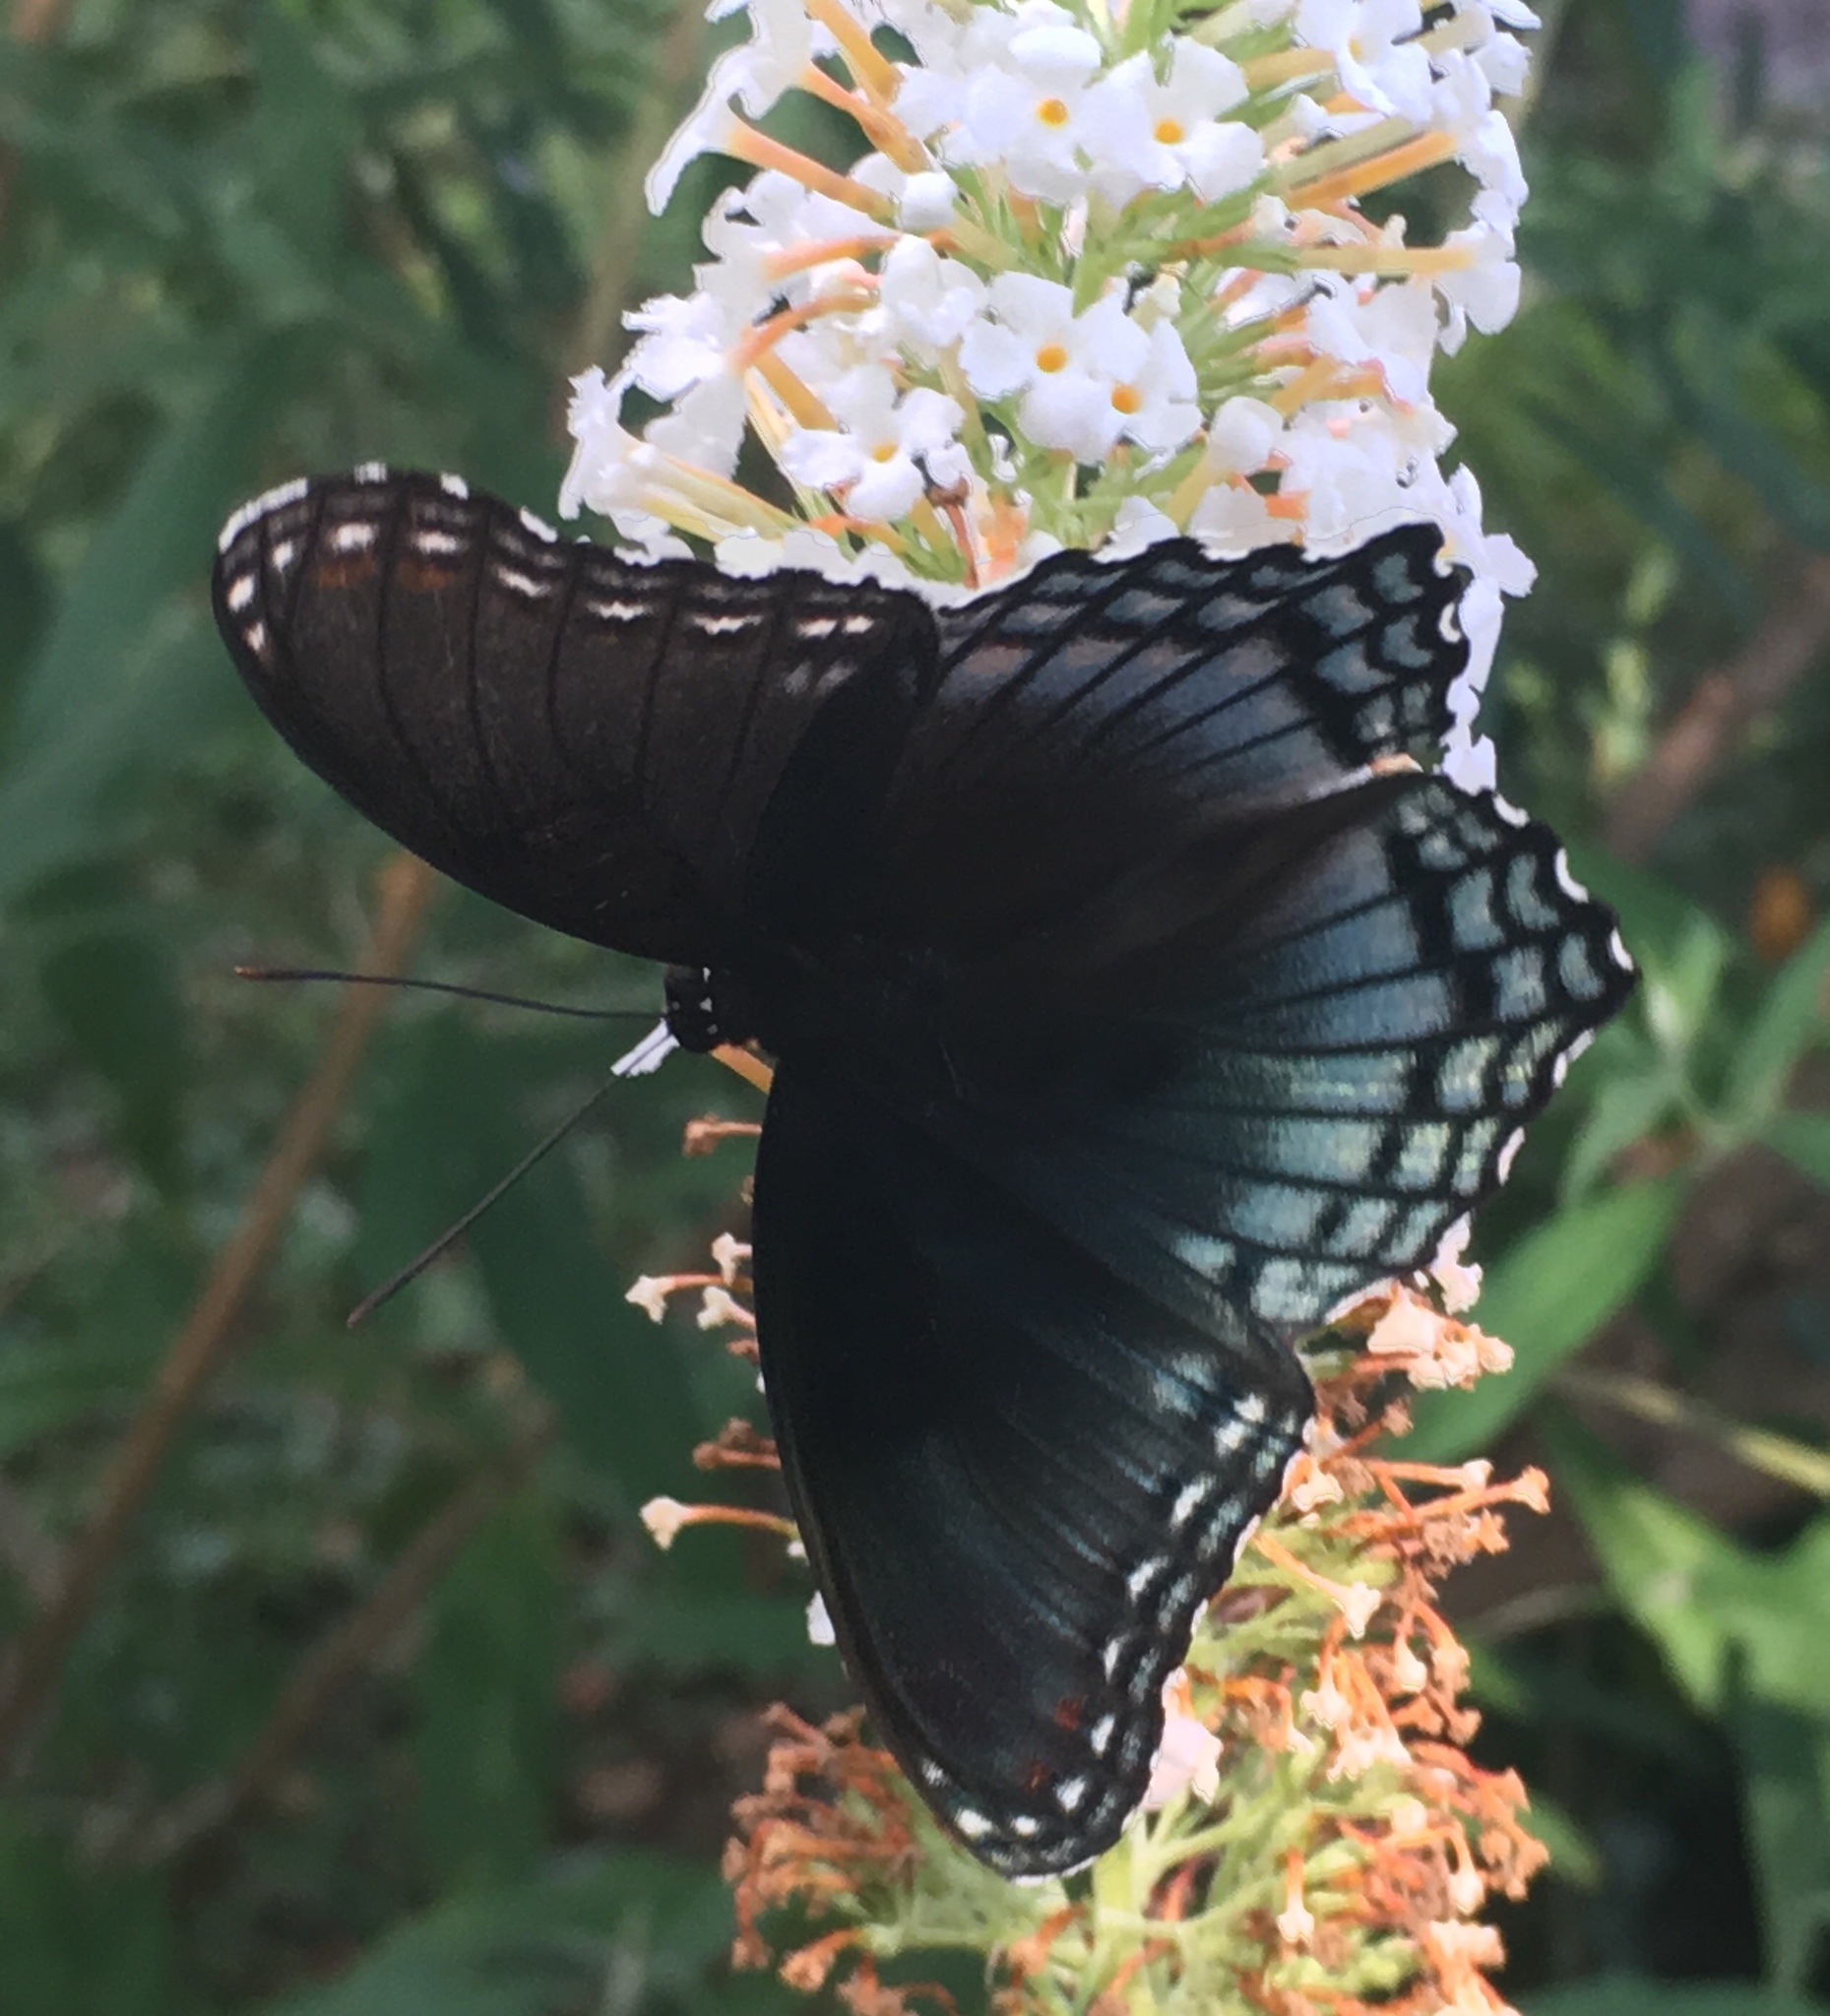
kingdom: Animalia
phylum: Arthropoda
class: Insecta
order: Lepidoptera
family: Nymphalidae
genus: Limenitis
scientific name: Limenitis astyanax
